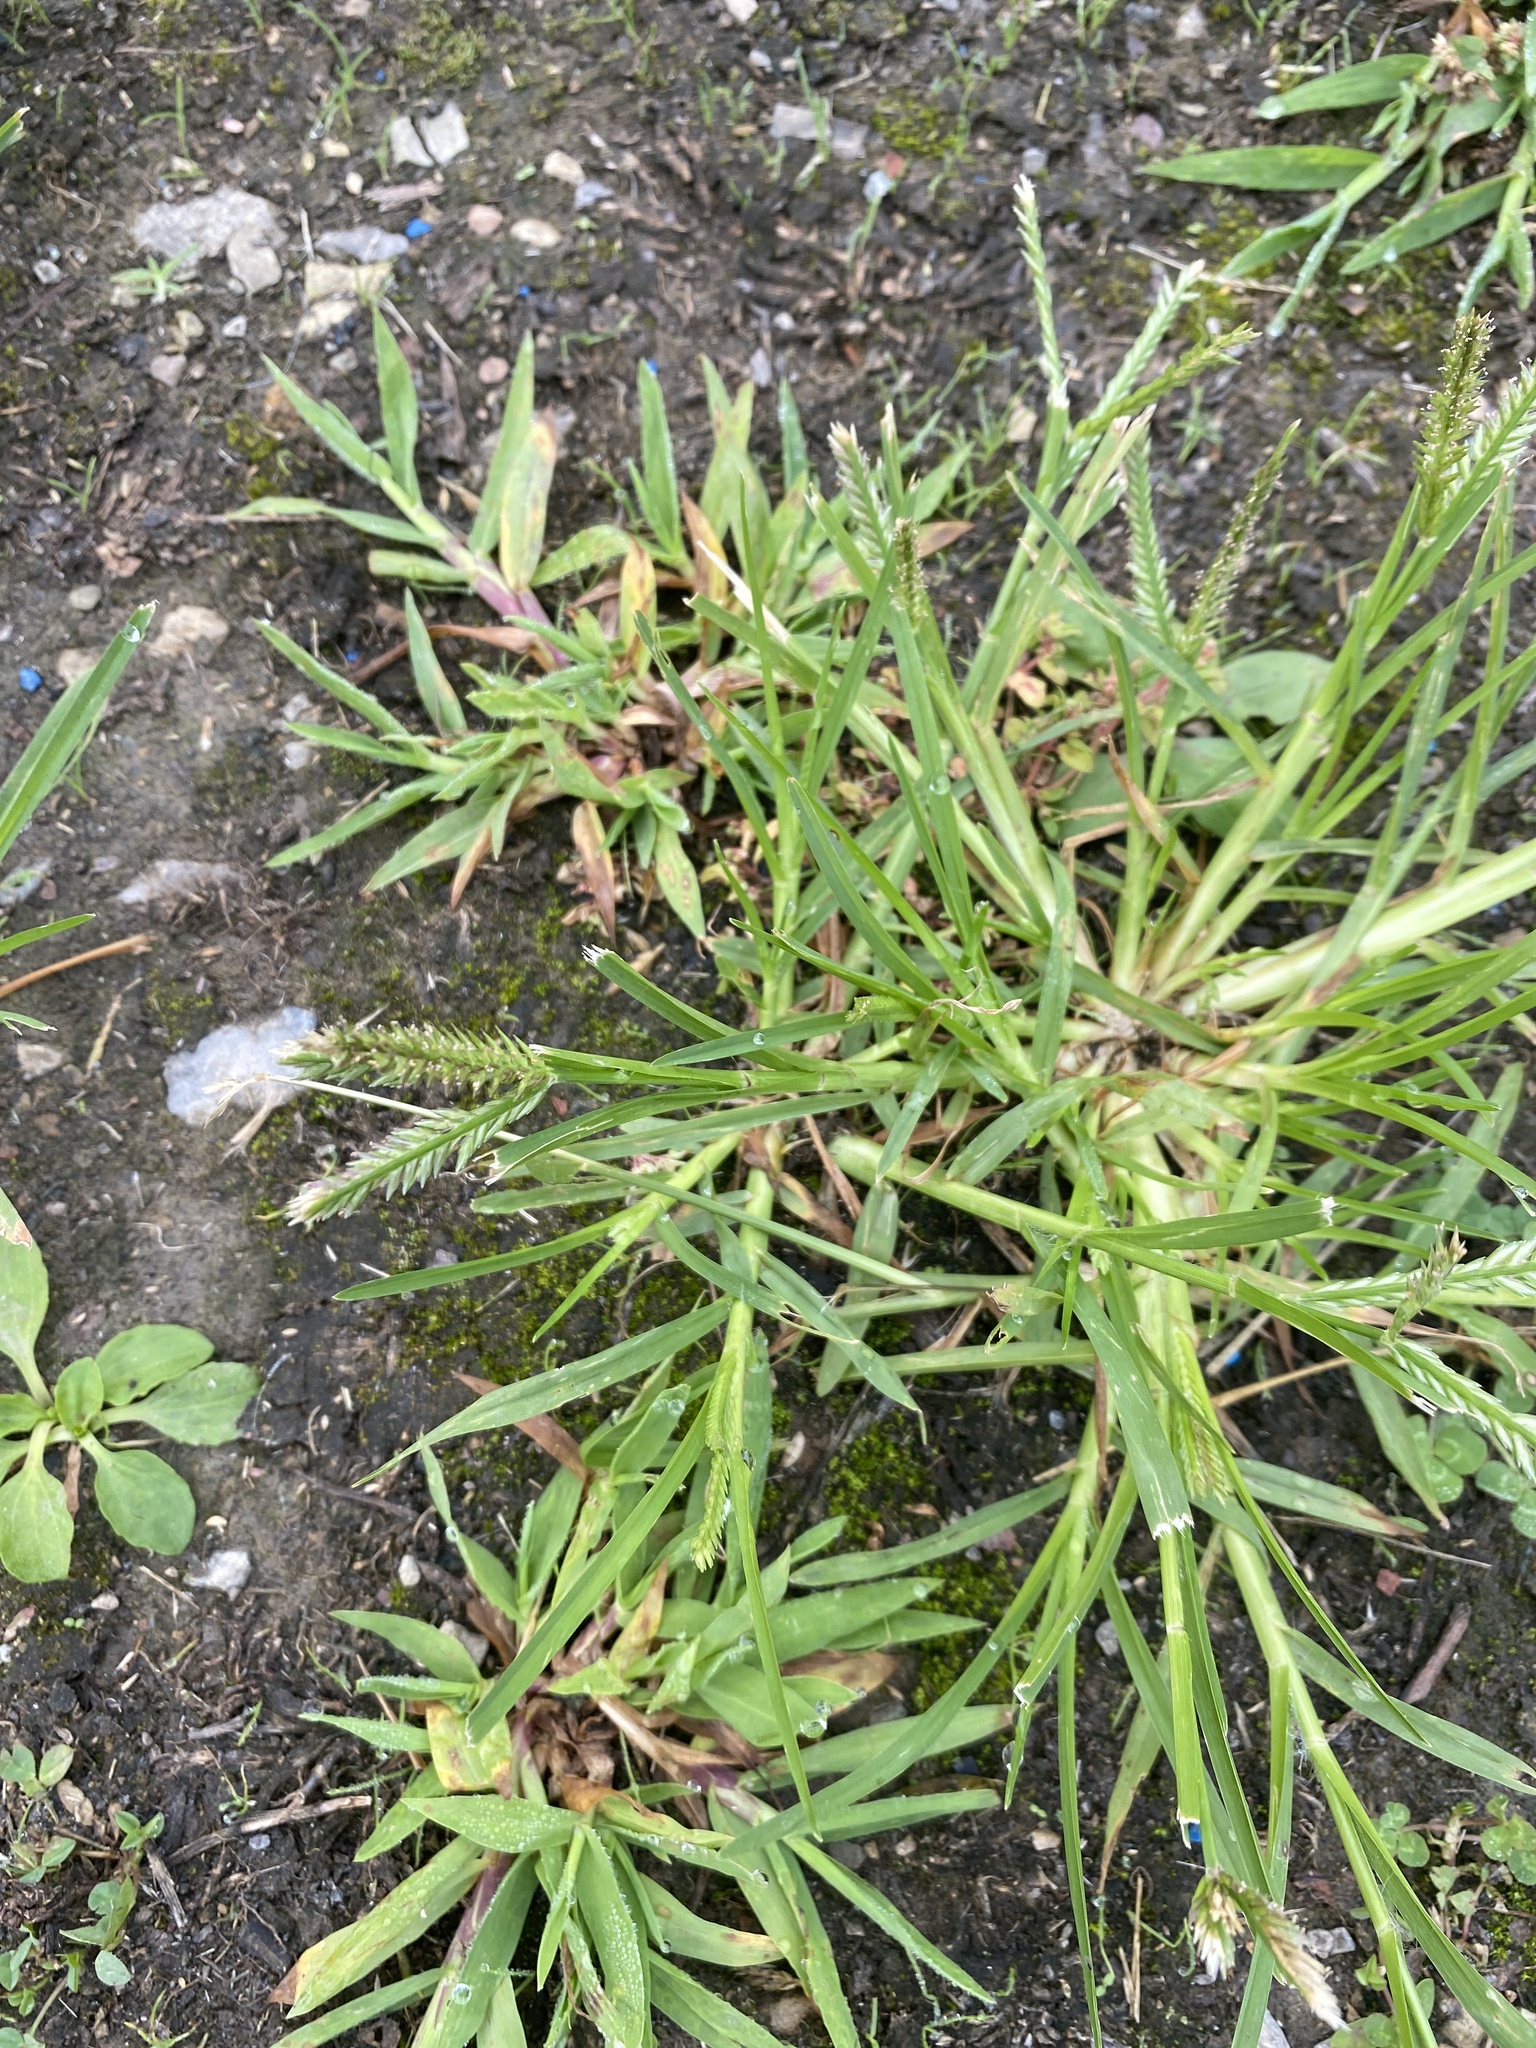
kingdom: Plantae
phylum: Tracheophyta
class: Liliopsida
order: Poales
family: Poaceae
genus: Eleusine
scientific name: Eleusine indica
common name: Yard-grass
